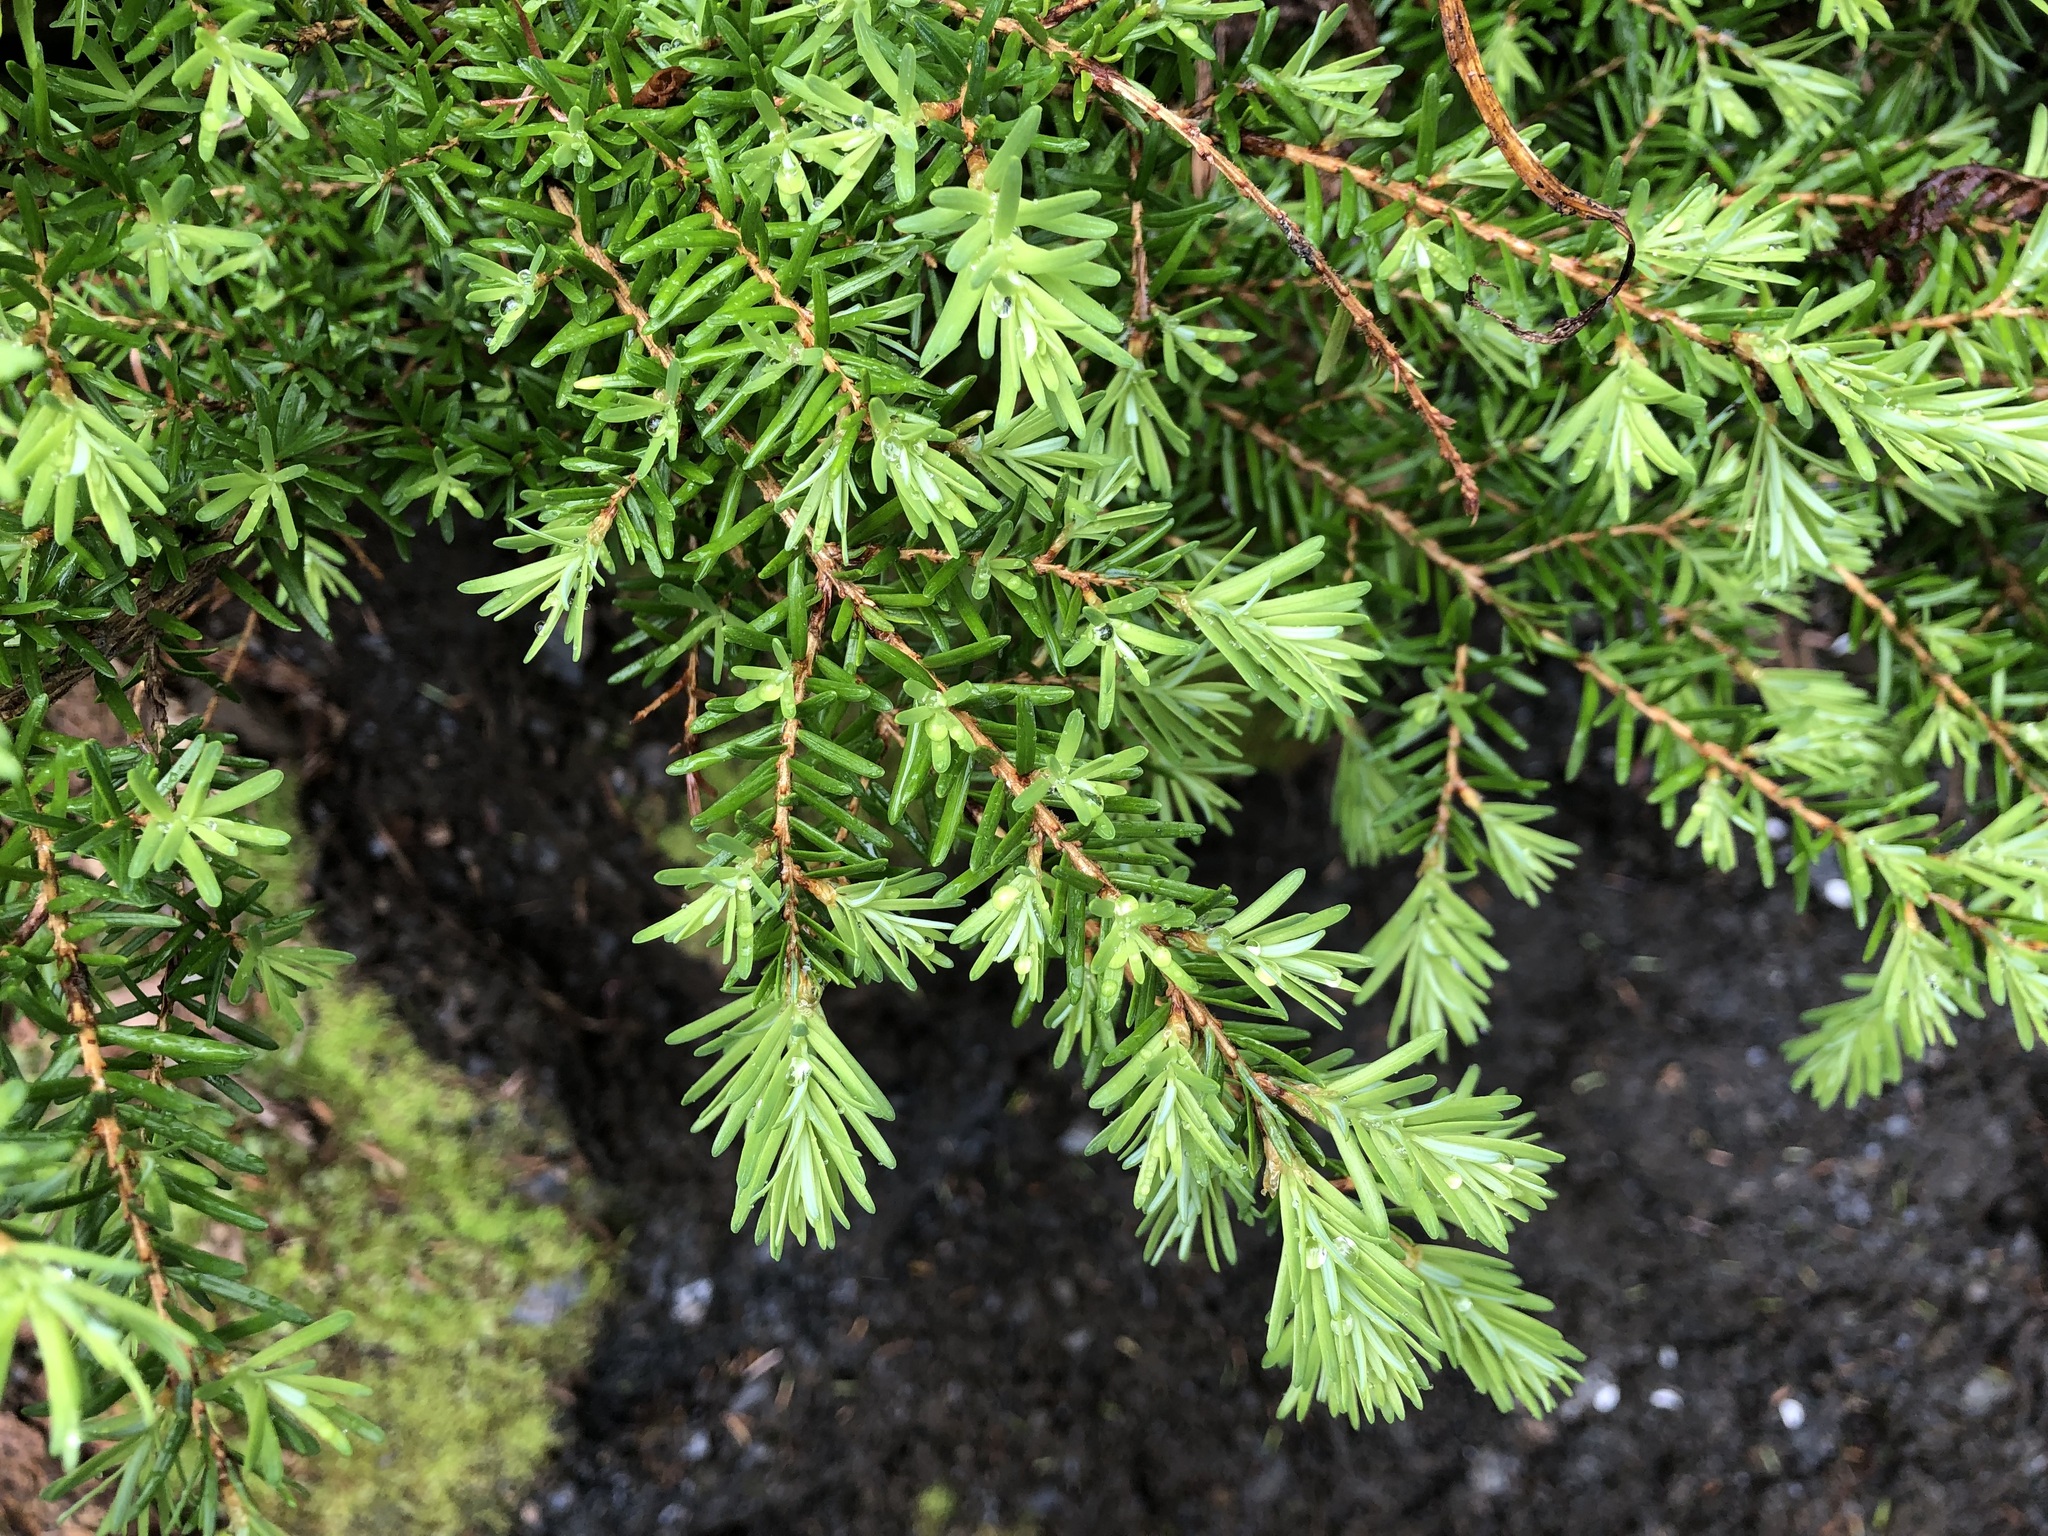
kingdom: Plantae
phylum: Tracheophyta
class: Pinopsida
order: Pinales
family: Pinaceae
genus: Tsuga
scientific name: Tsuga heterophylla
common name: Western hemlock
